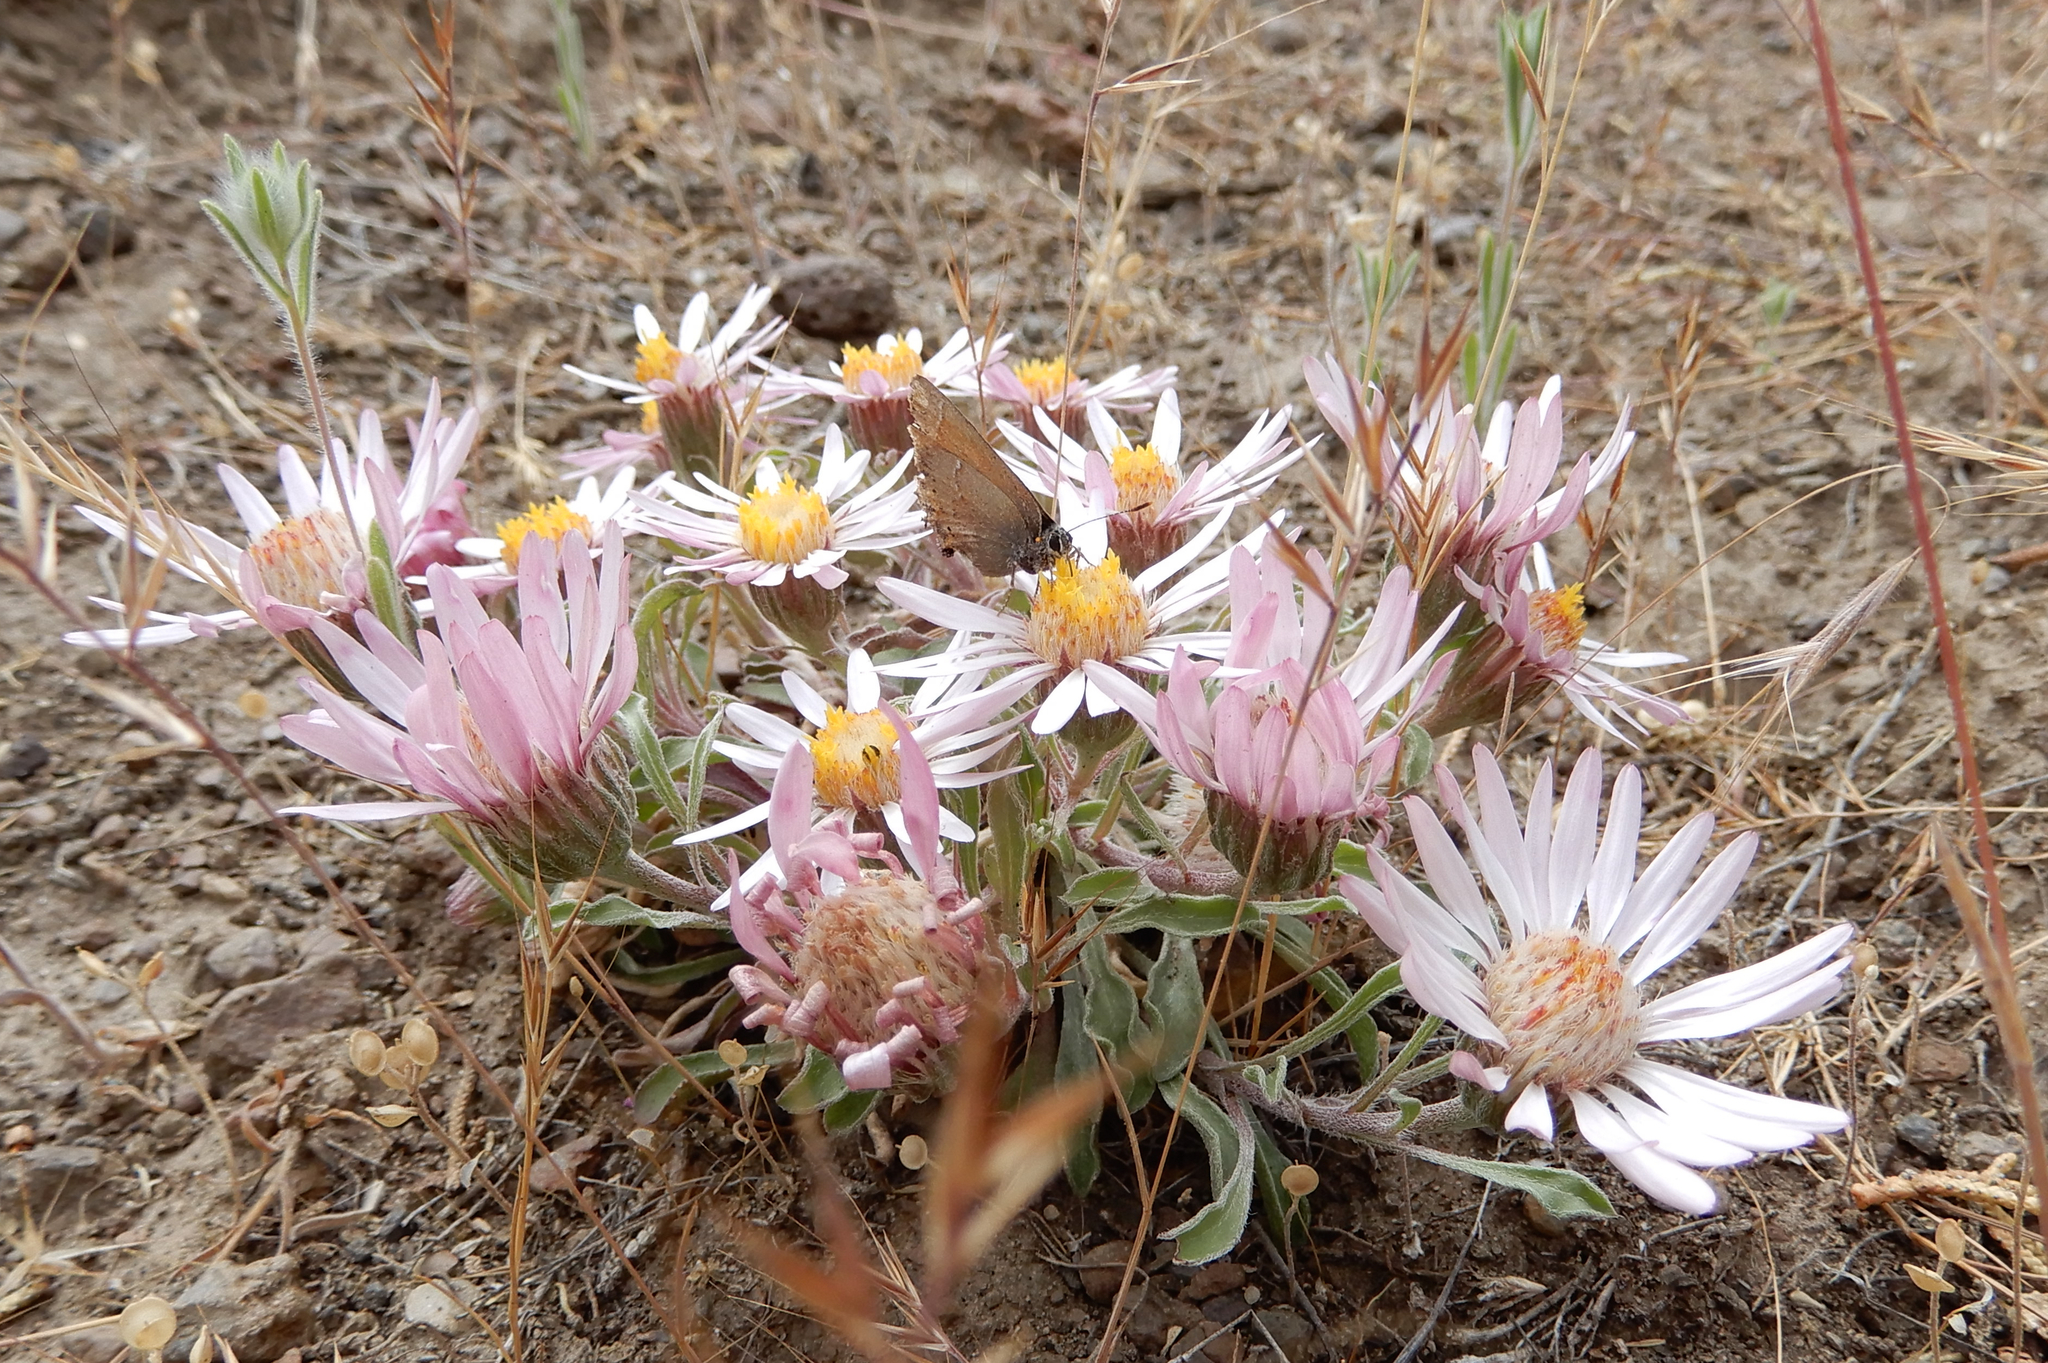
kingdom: Plantae
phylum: Tracheophyta
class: Magnoliopsida
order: Asterales
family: Asteraceae
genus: Townsendia
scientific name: Townsendia florifera
